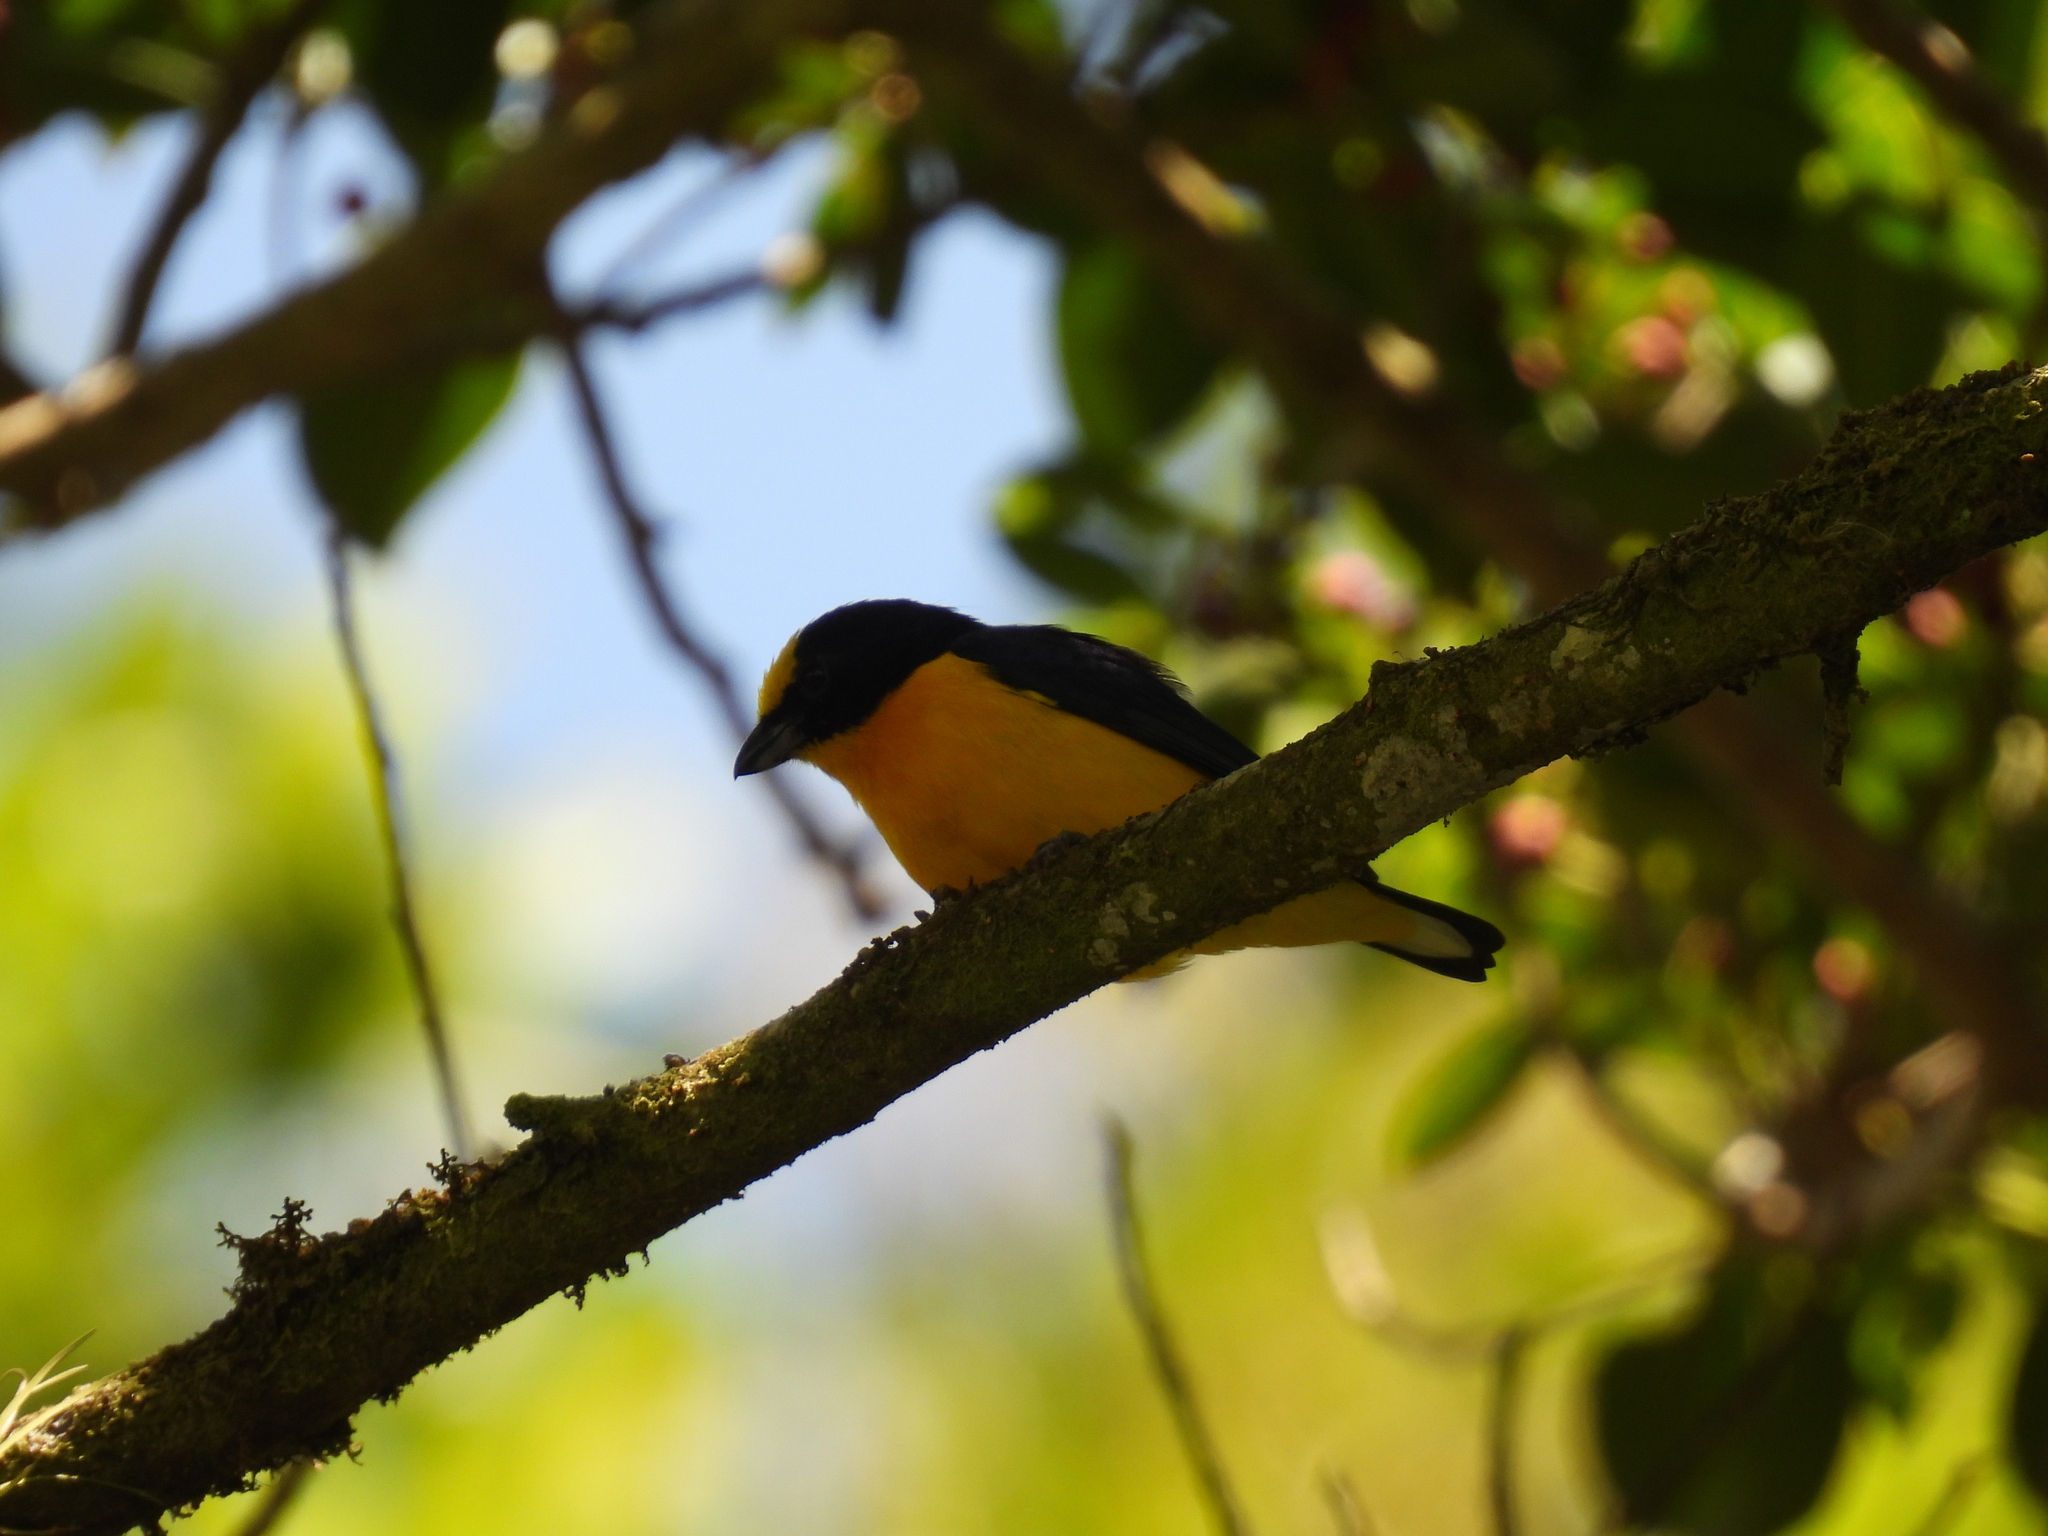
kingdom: Animalia
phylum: Chordata
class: Aves
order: Passeriformes
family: Fringillidae
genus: Euphonia
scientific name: Euphonia laniirostris
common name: Thick-billed euphonia
